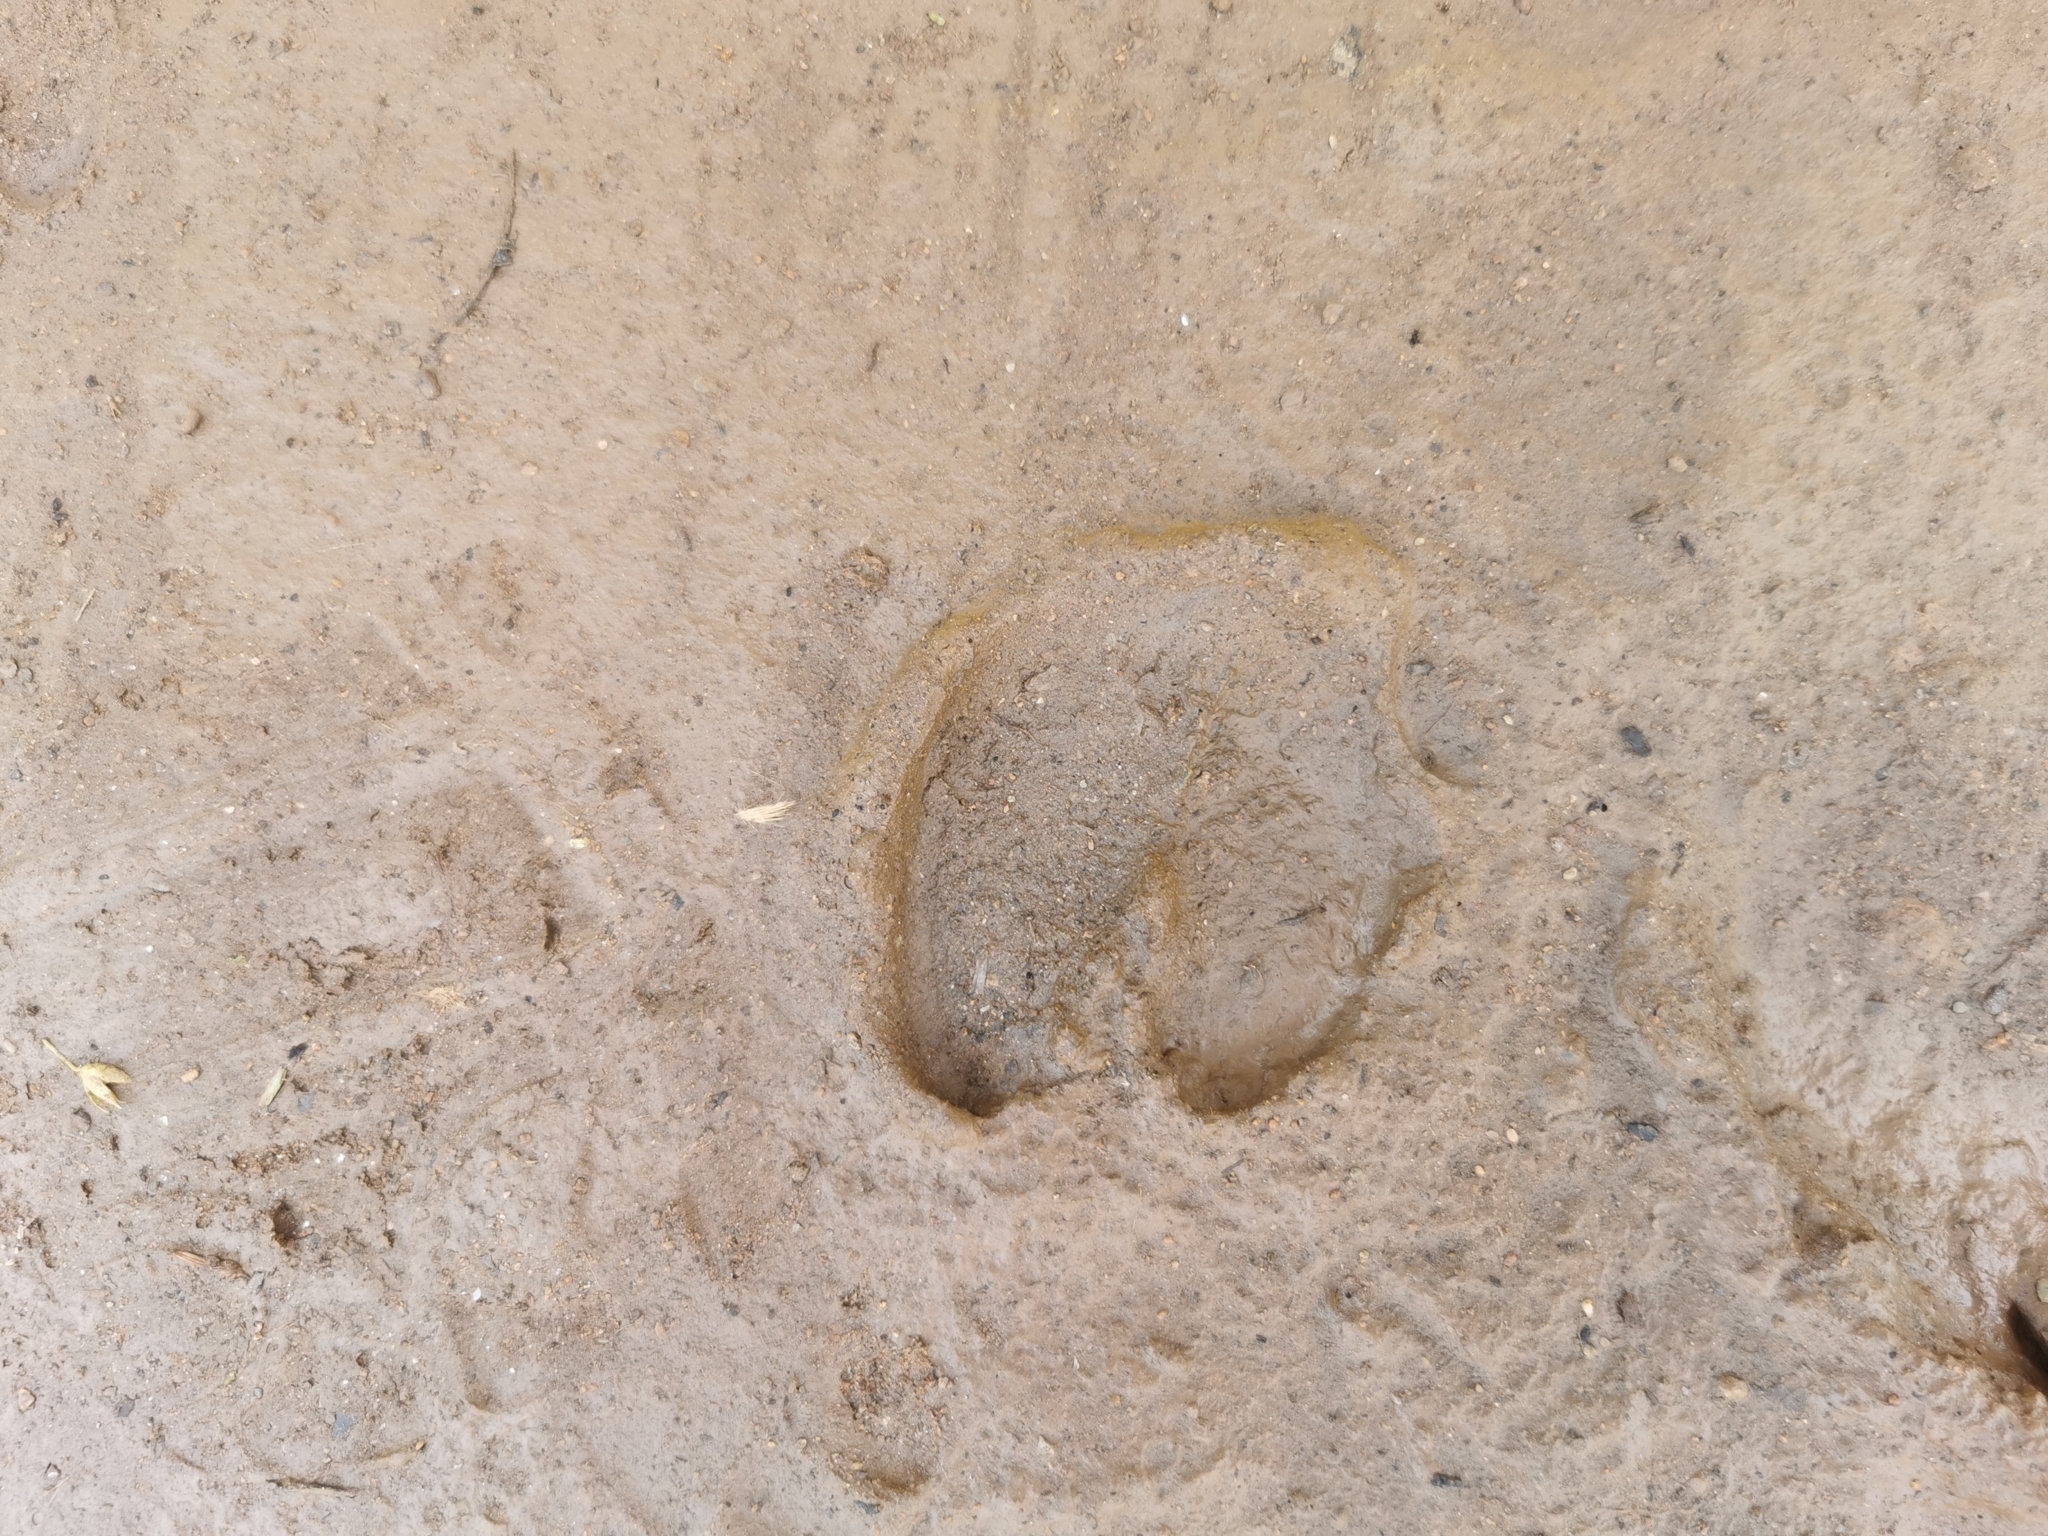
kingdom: Animalia
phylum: Chordata
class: Mammalia
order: Artiodactyla
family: Suidae
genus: Sus
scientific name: Sus scrofa
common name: Wild boar
